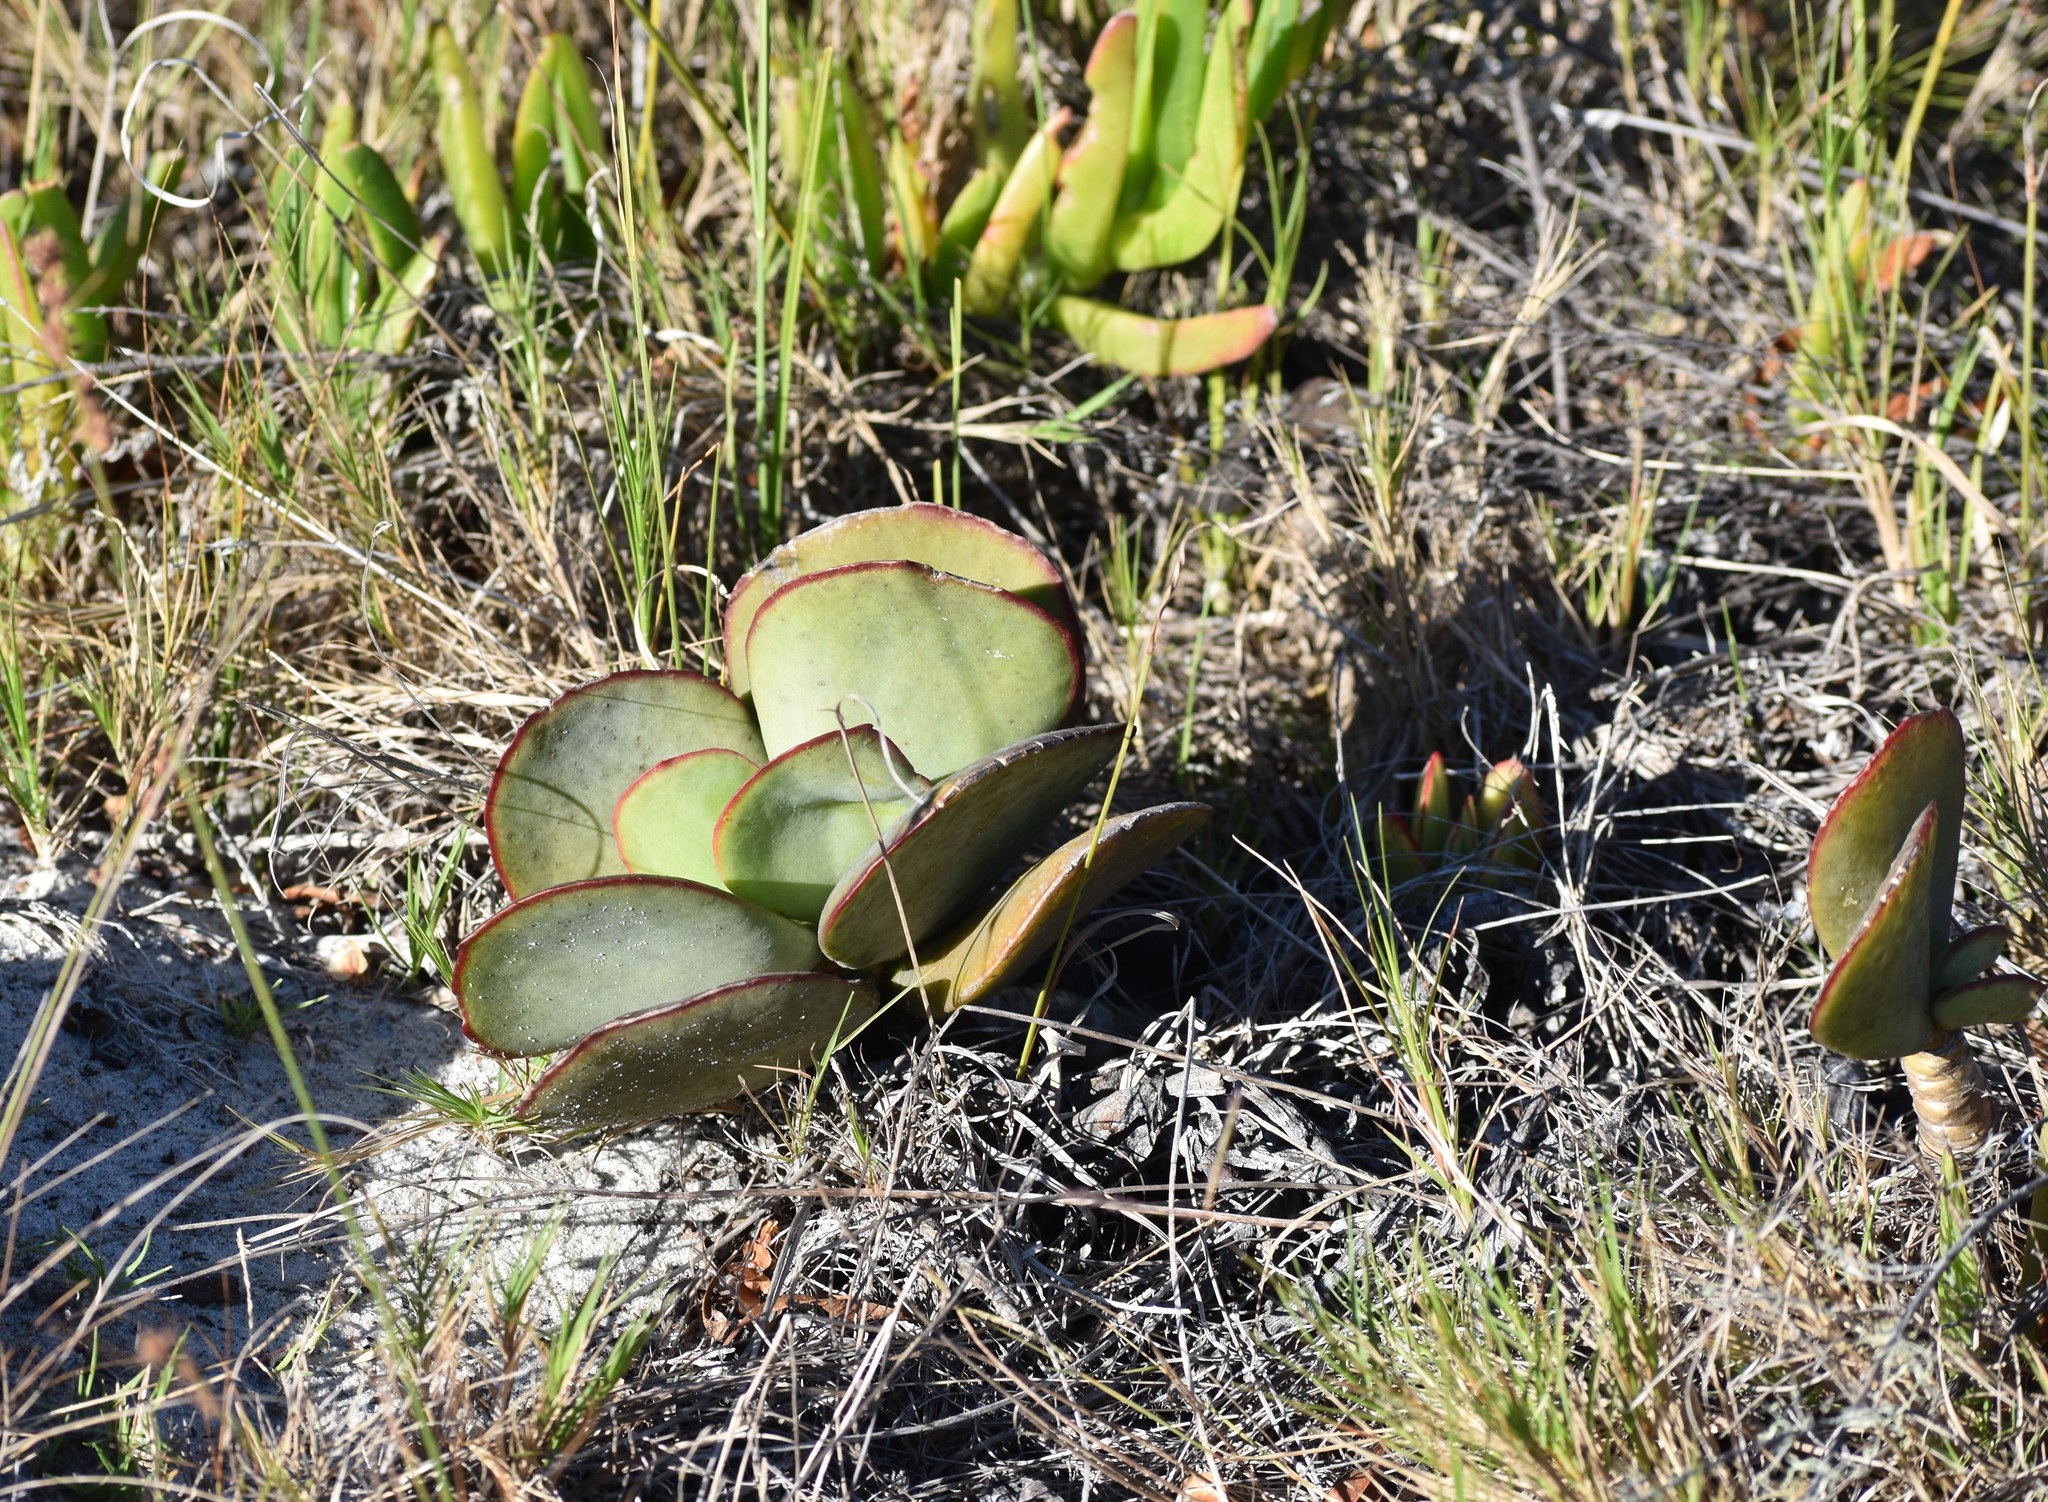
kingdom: Plantae
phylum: Tracheophyta
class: Magnoliopsida
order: Saxifragales
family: Crassulaceae
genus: Cotyledon
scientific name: Cotyledon orbiculata
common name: Pig's ear
